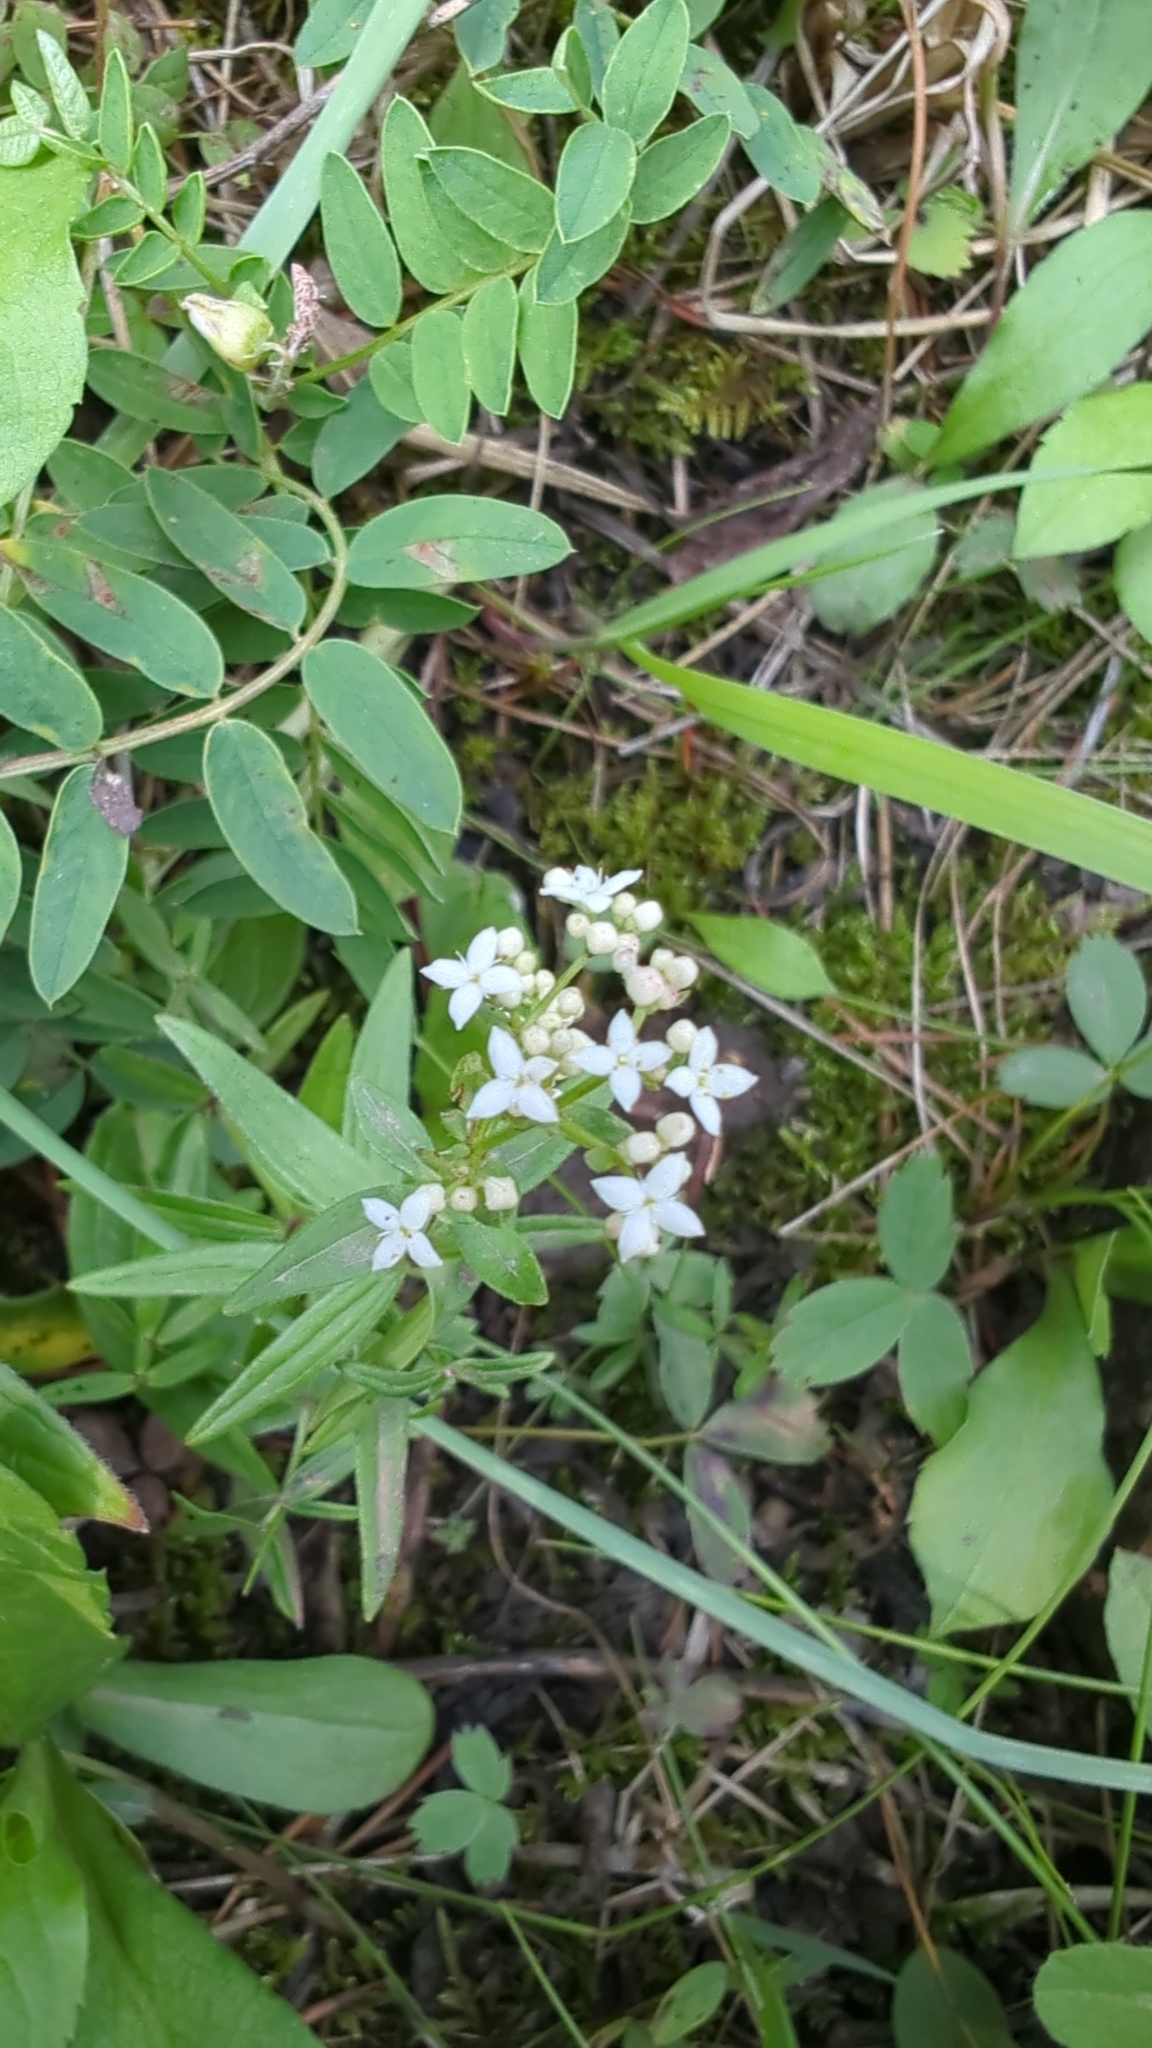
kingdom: Plantae
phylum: Tracheophyta
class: Magnoliopsida
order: Gentianales
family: Rubiaceae
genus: Galium
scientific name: Galium boreale
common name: Northern bedstraw
